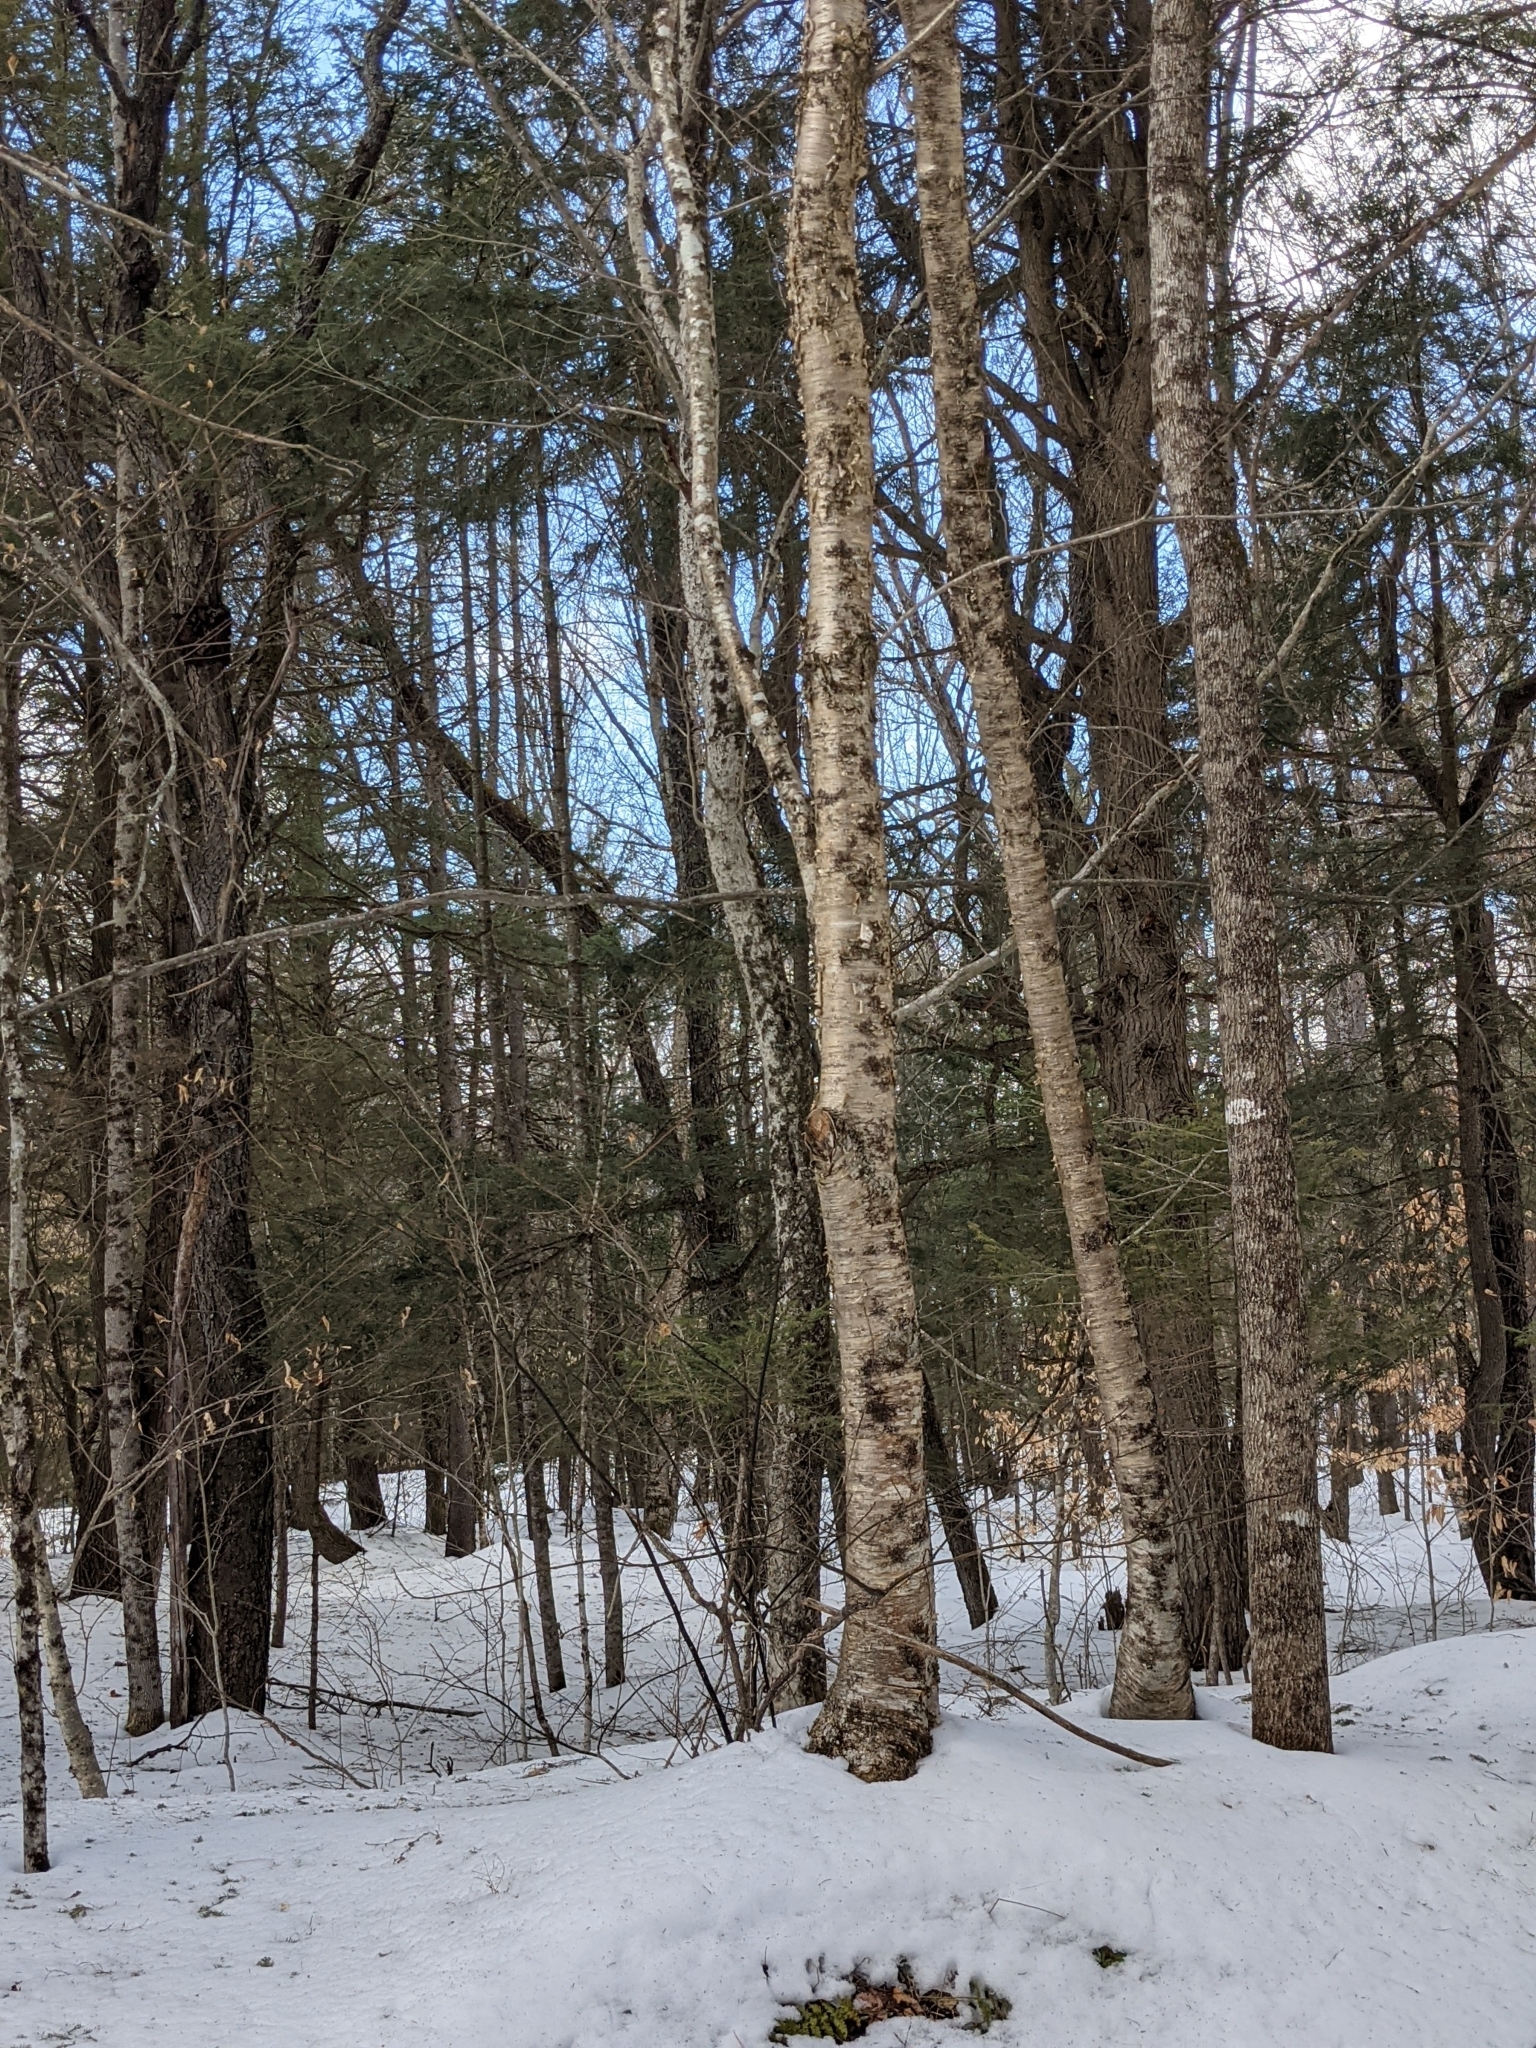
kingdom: Plantae
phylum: Tracheophyta
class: Magnoliopsida
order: Fagales
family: Betulaceae
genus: Betula
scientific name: Betula alleghaniensis
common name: Yellow birch
